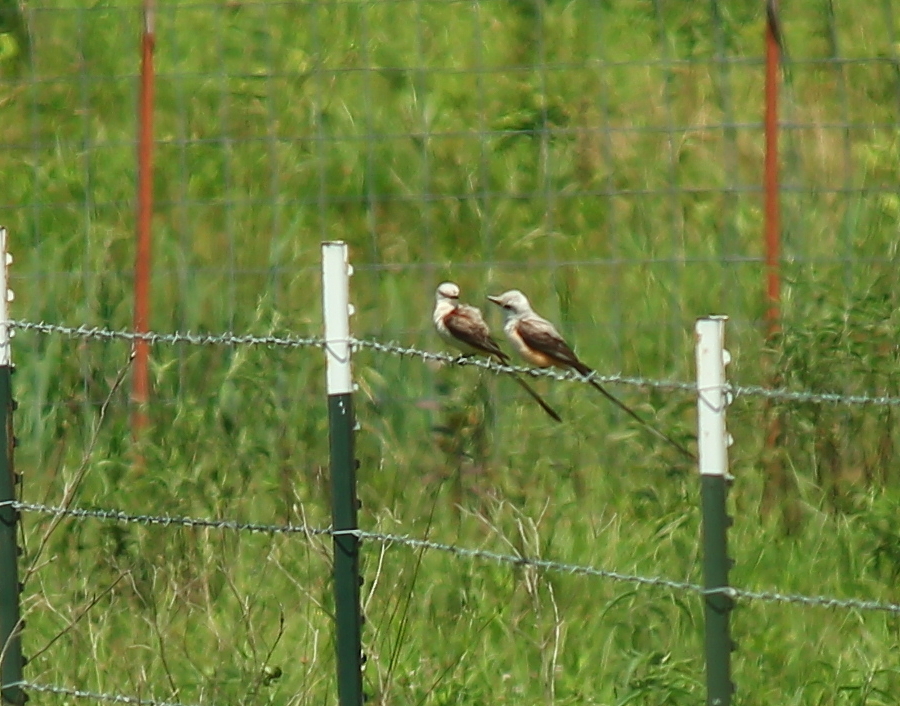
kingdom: Animalia
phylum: Chordata
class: Aves
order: Passeriformes
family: Tyrannidae
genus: Tyrannus
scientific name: Tyrannus forficatus
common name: Scissor-tailed flycatcher
